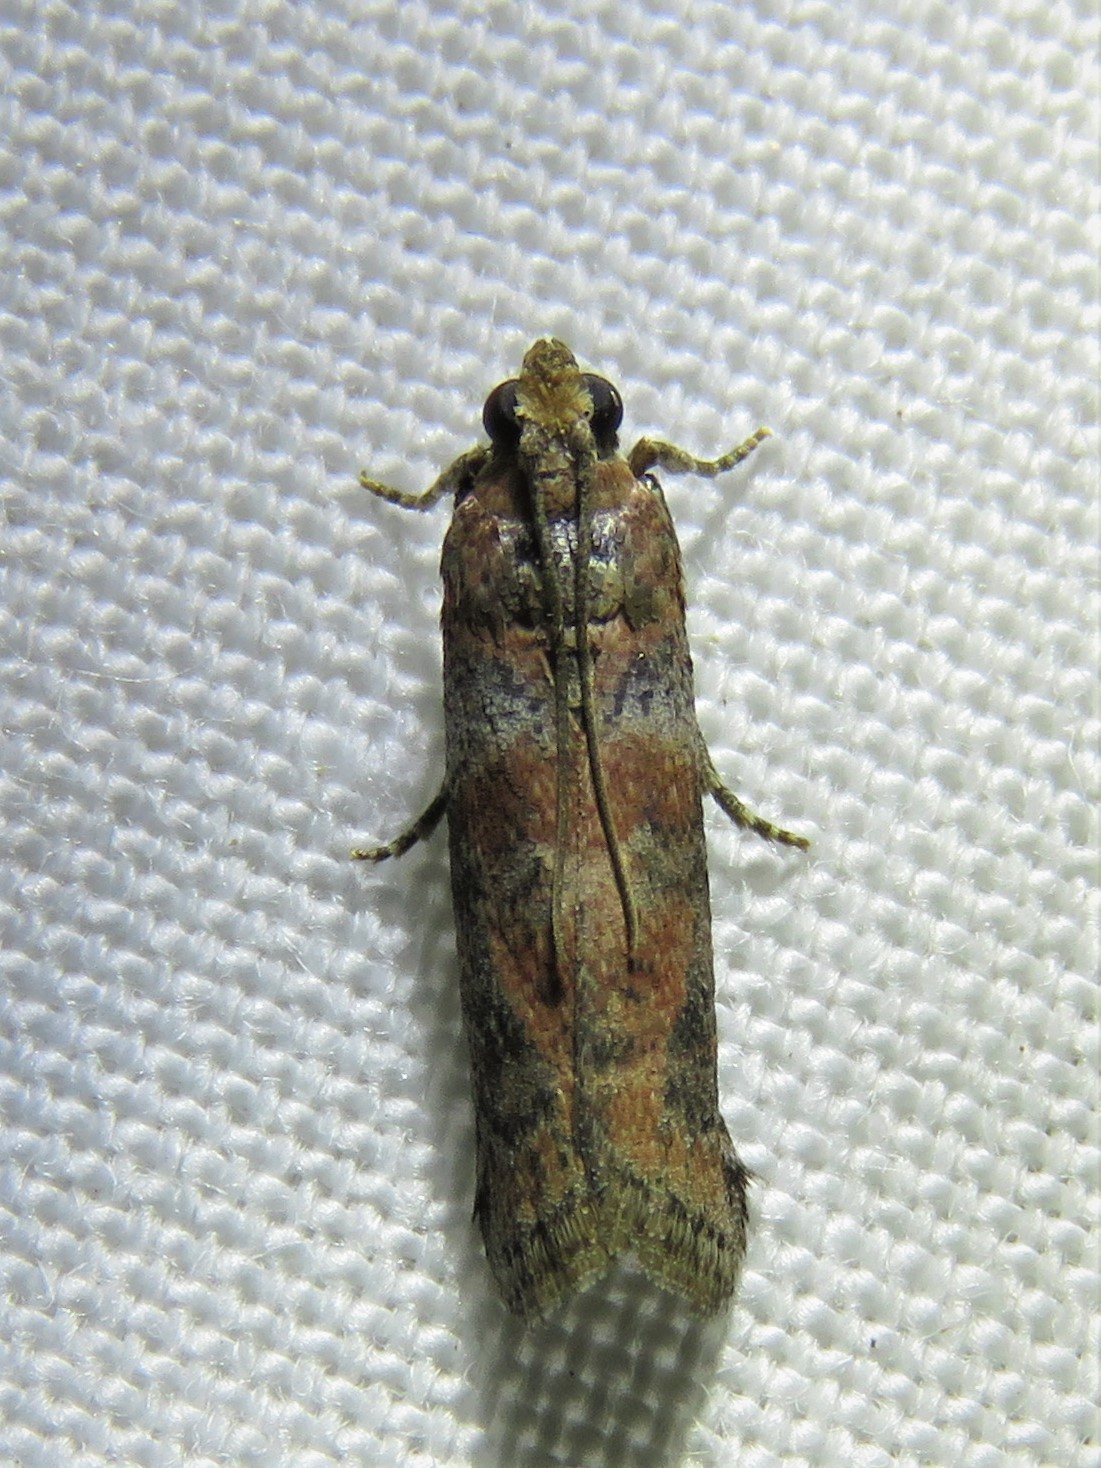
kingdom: Animalia
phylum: Arthropoda
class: Insecta
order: Lepidoptera
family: Pyralidae
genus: Sciota
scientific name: Sciota
